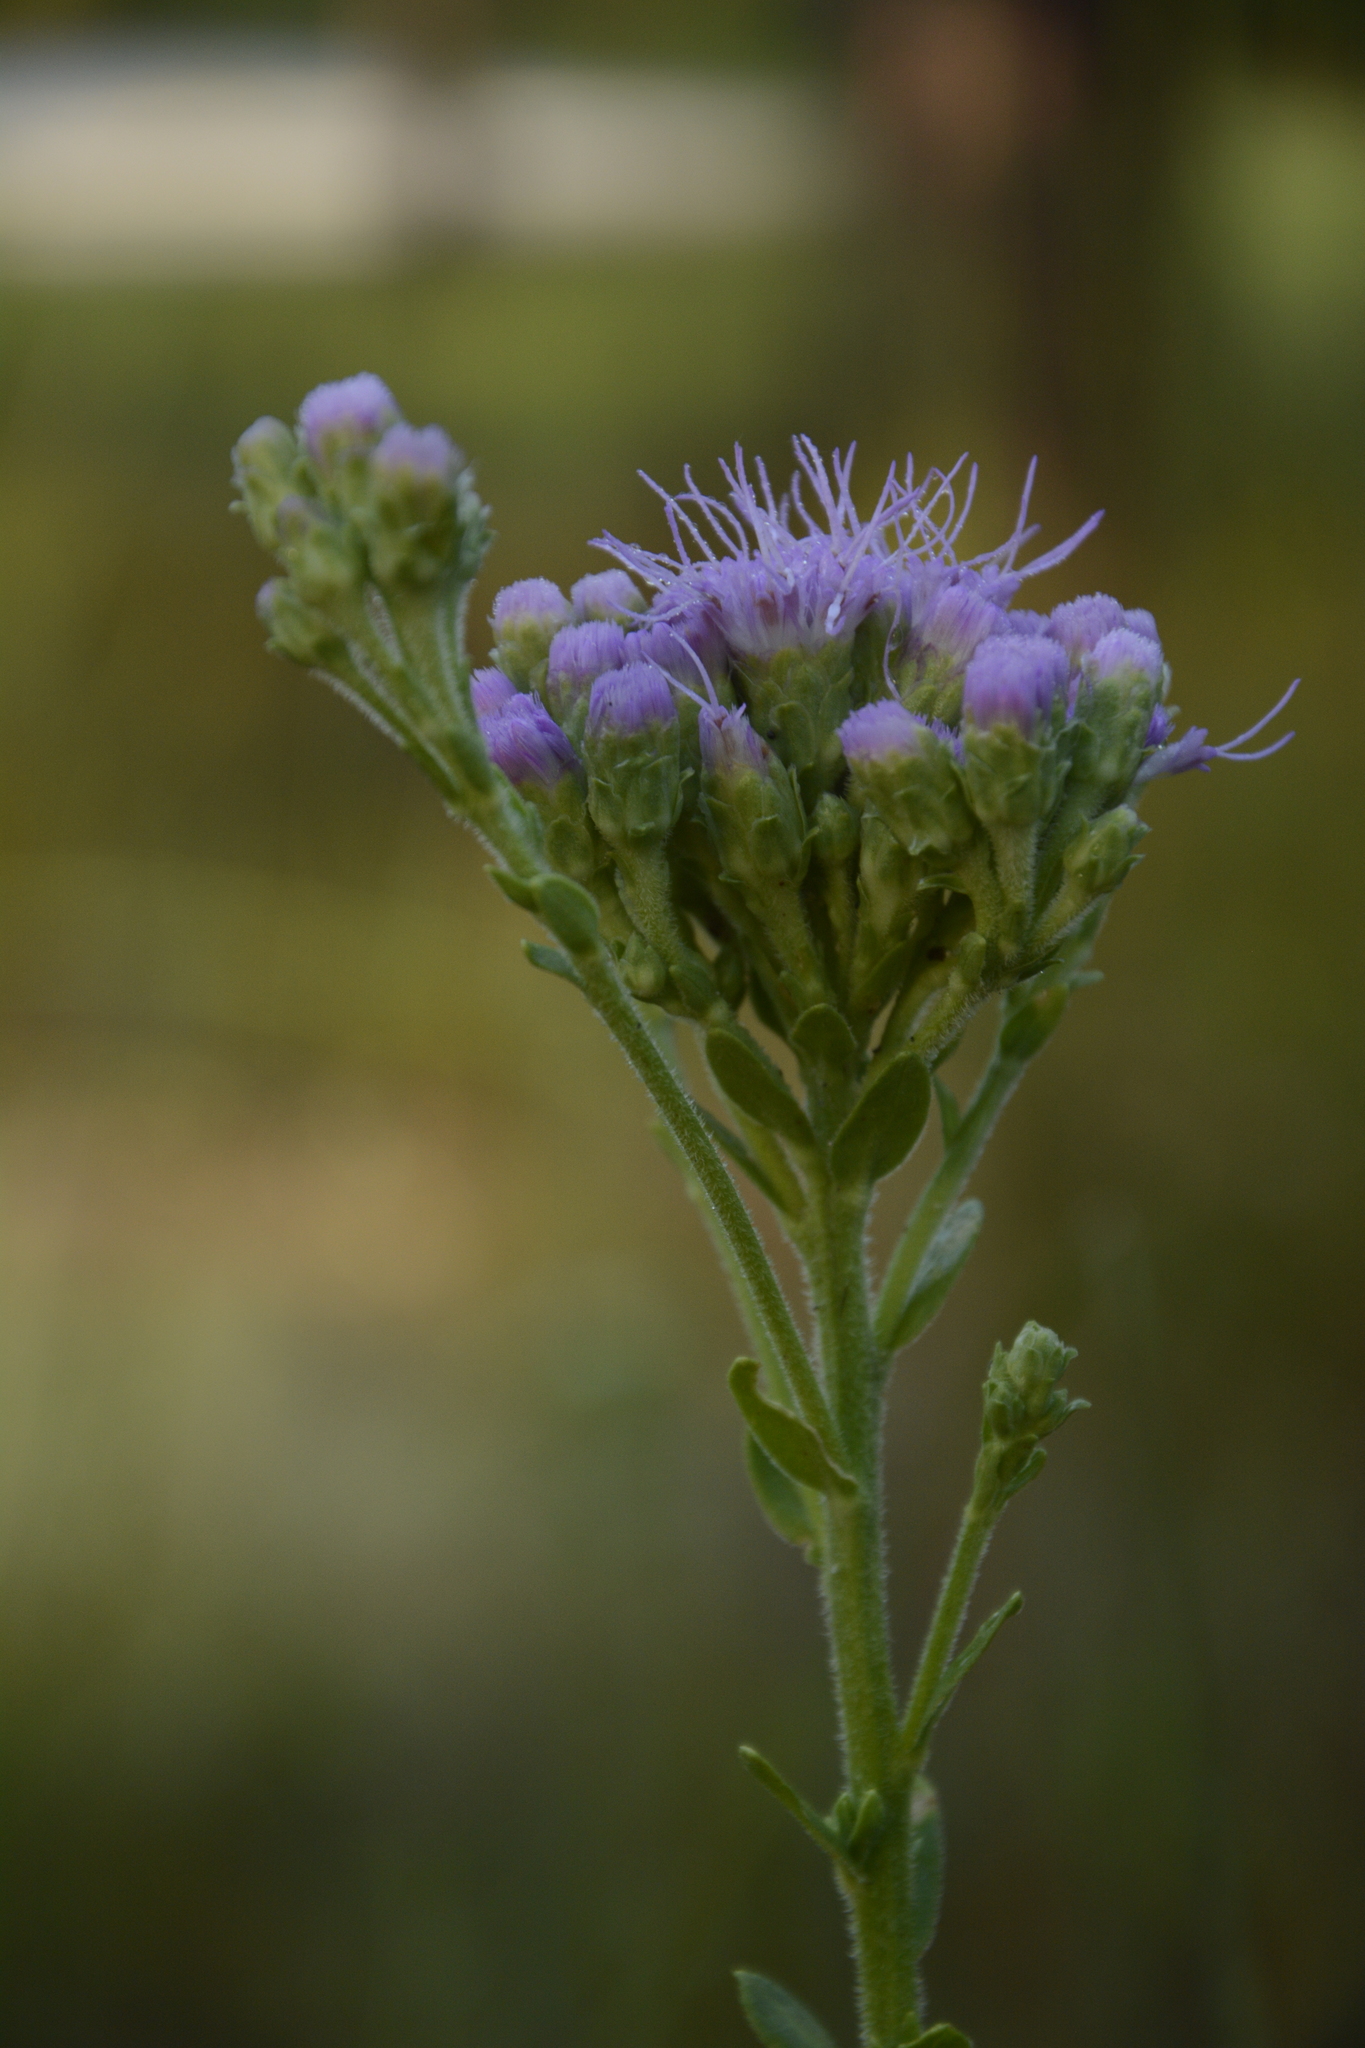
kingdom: Plantae
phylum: Tracheophyta
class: Magnoliopsida
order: Asterales
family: Asteraceae
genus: Carphephorus
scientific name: Carphephorus corymbosus
